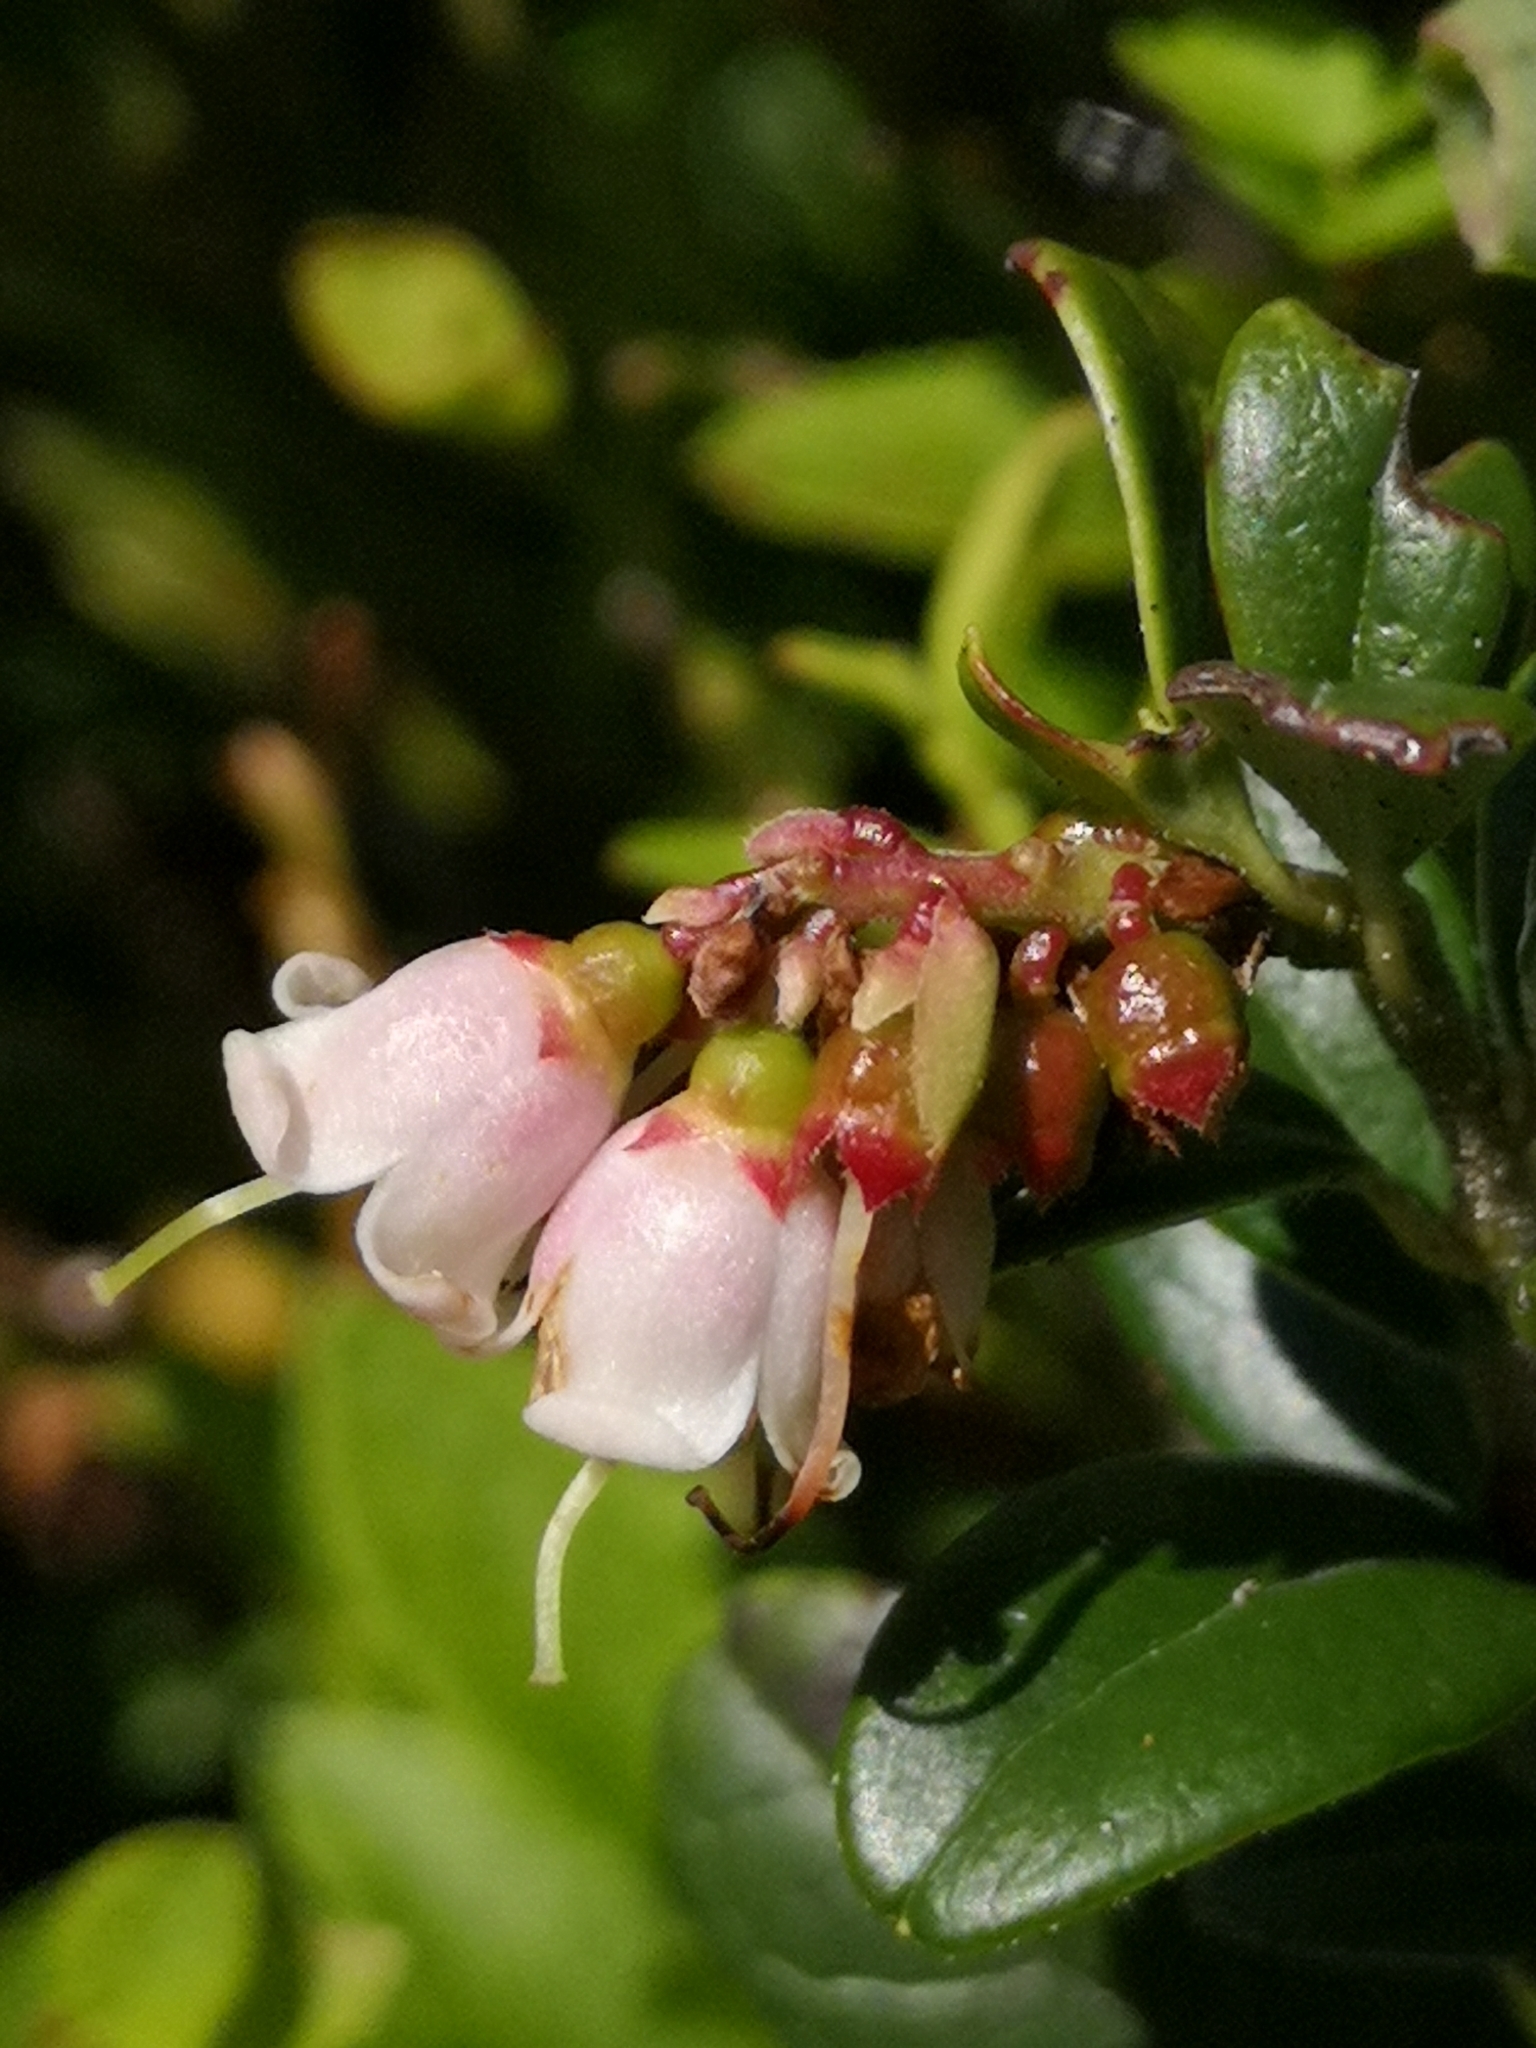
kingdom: Plantae
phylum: Tracheophyta
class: Magnoliopsida
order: Ericales
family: Ericaceae
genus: Vaccinium
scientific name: Vaccinium vitis-idaea
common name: Cowberry
